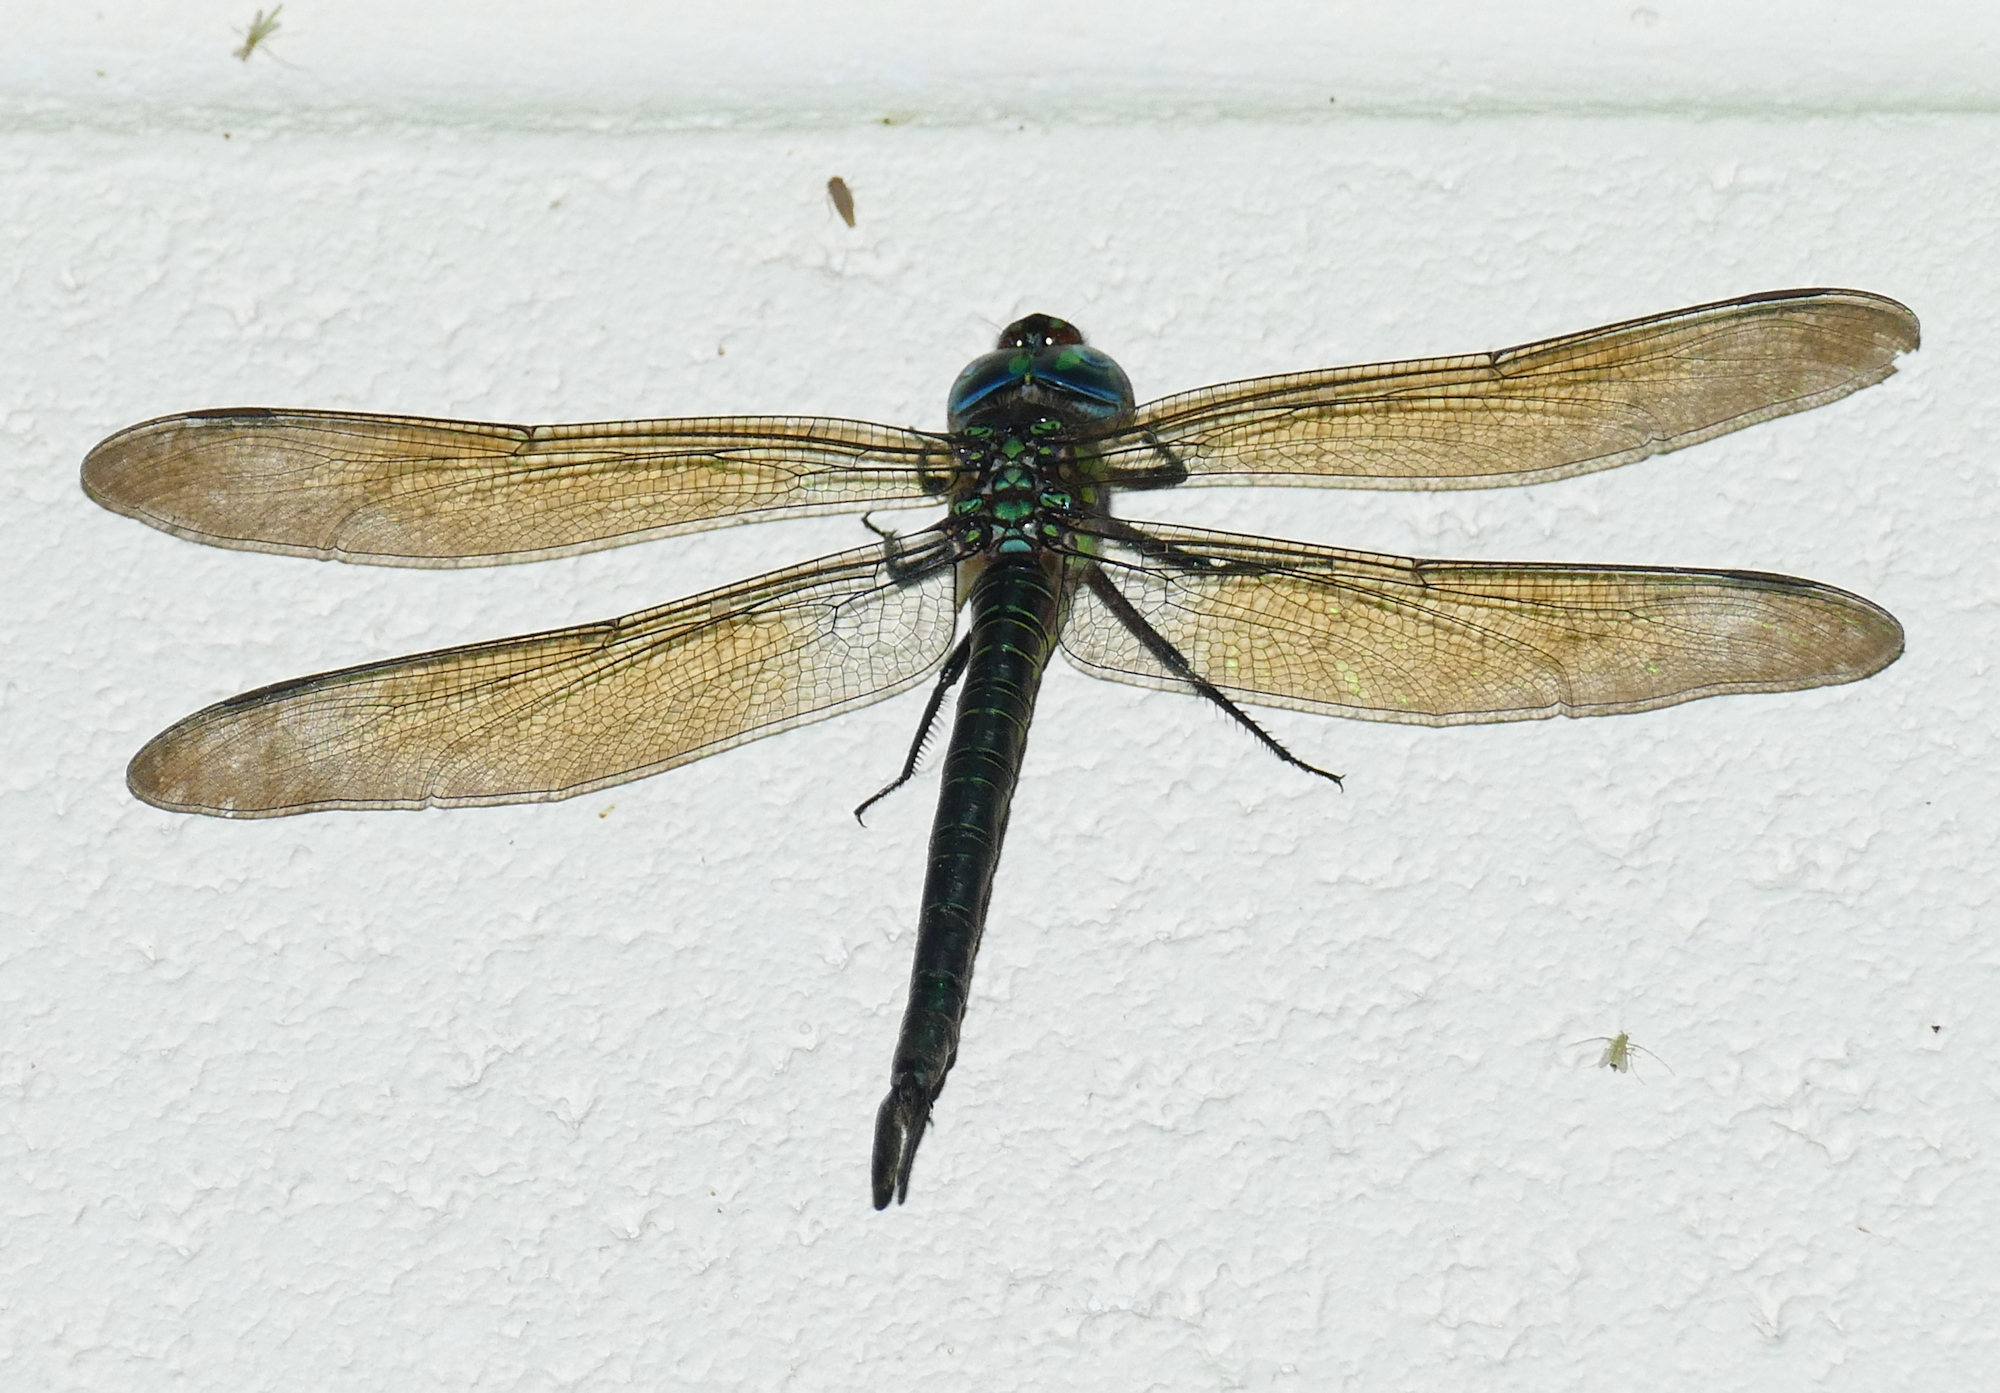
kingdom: Animalia
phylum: Arthropoda
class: Insecta
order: Odonata
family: Aeshnidae
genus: Epiaeschna
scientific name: Epiaeschna heros
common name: Swamp darner
